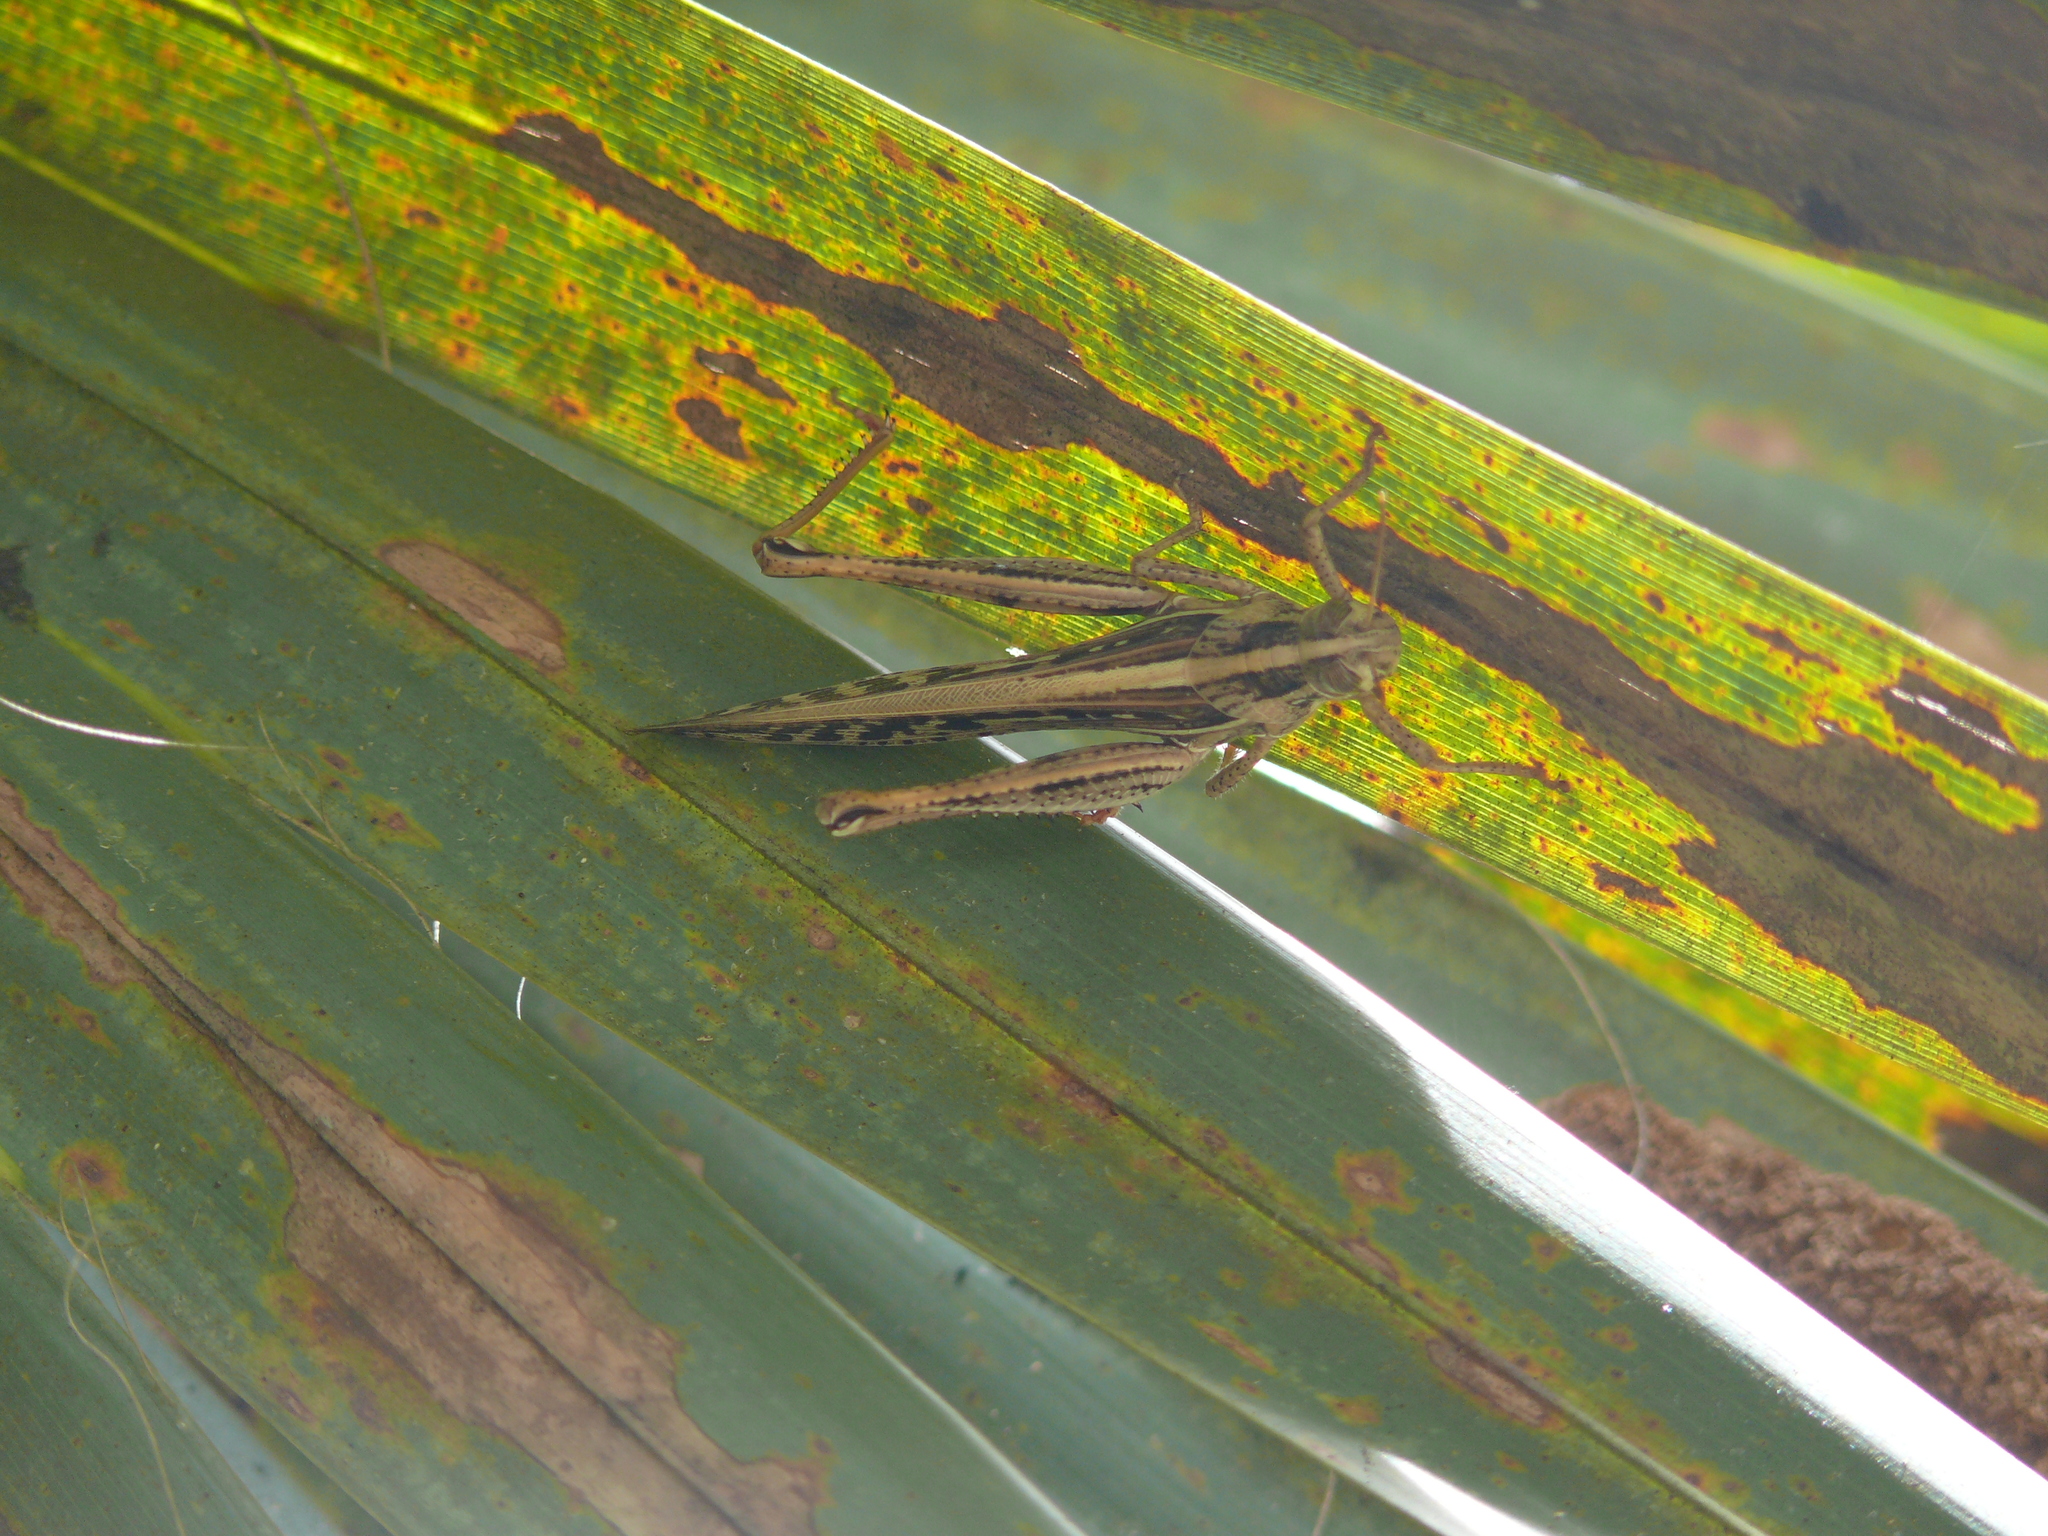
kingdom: Animalia
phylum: Arthropoda
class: Insecta
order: Orthoptera
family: Acrididae
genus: Schistocerca
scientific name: Schistocerca americana
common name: American bird locust
